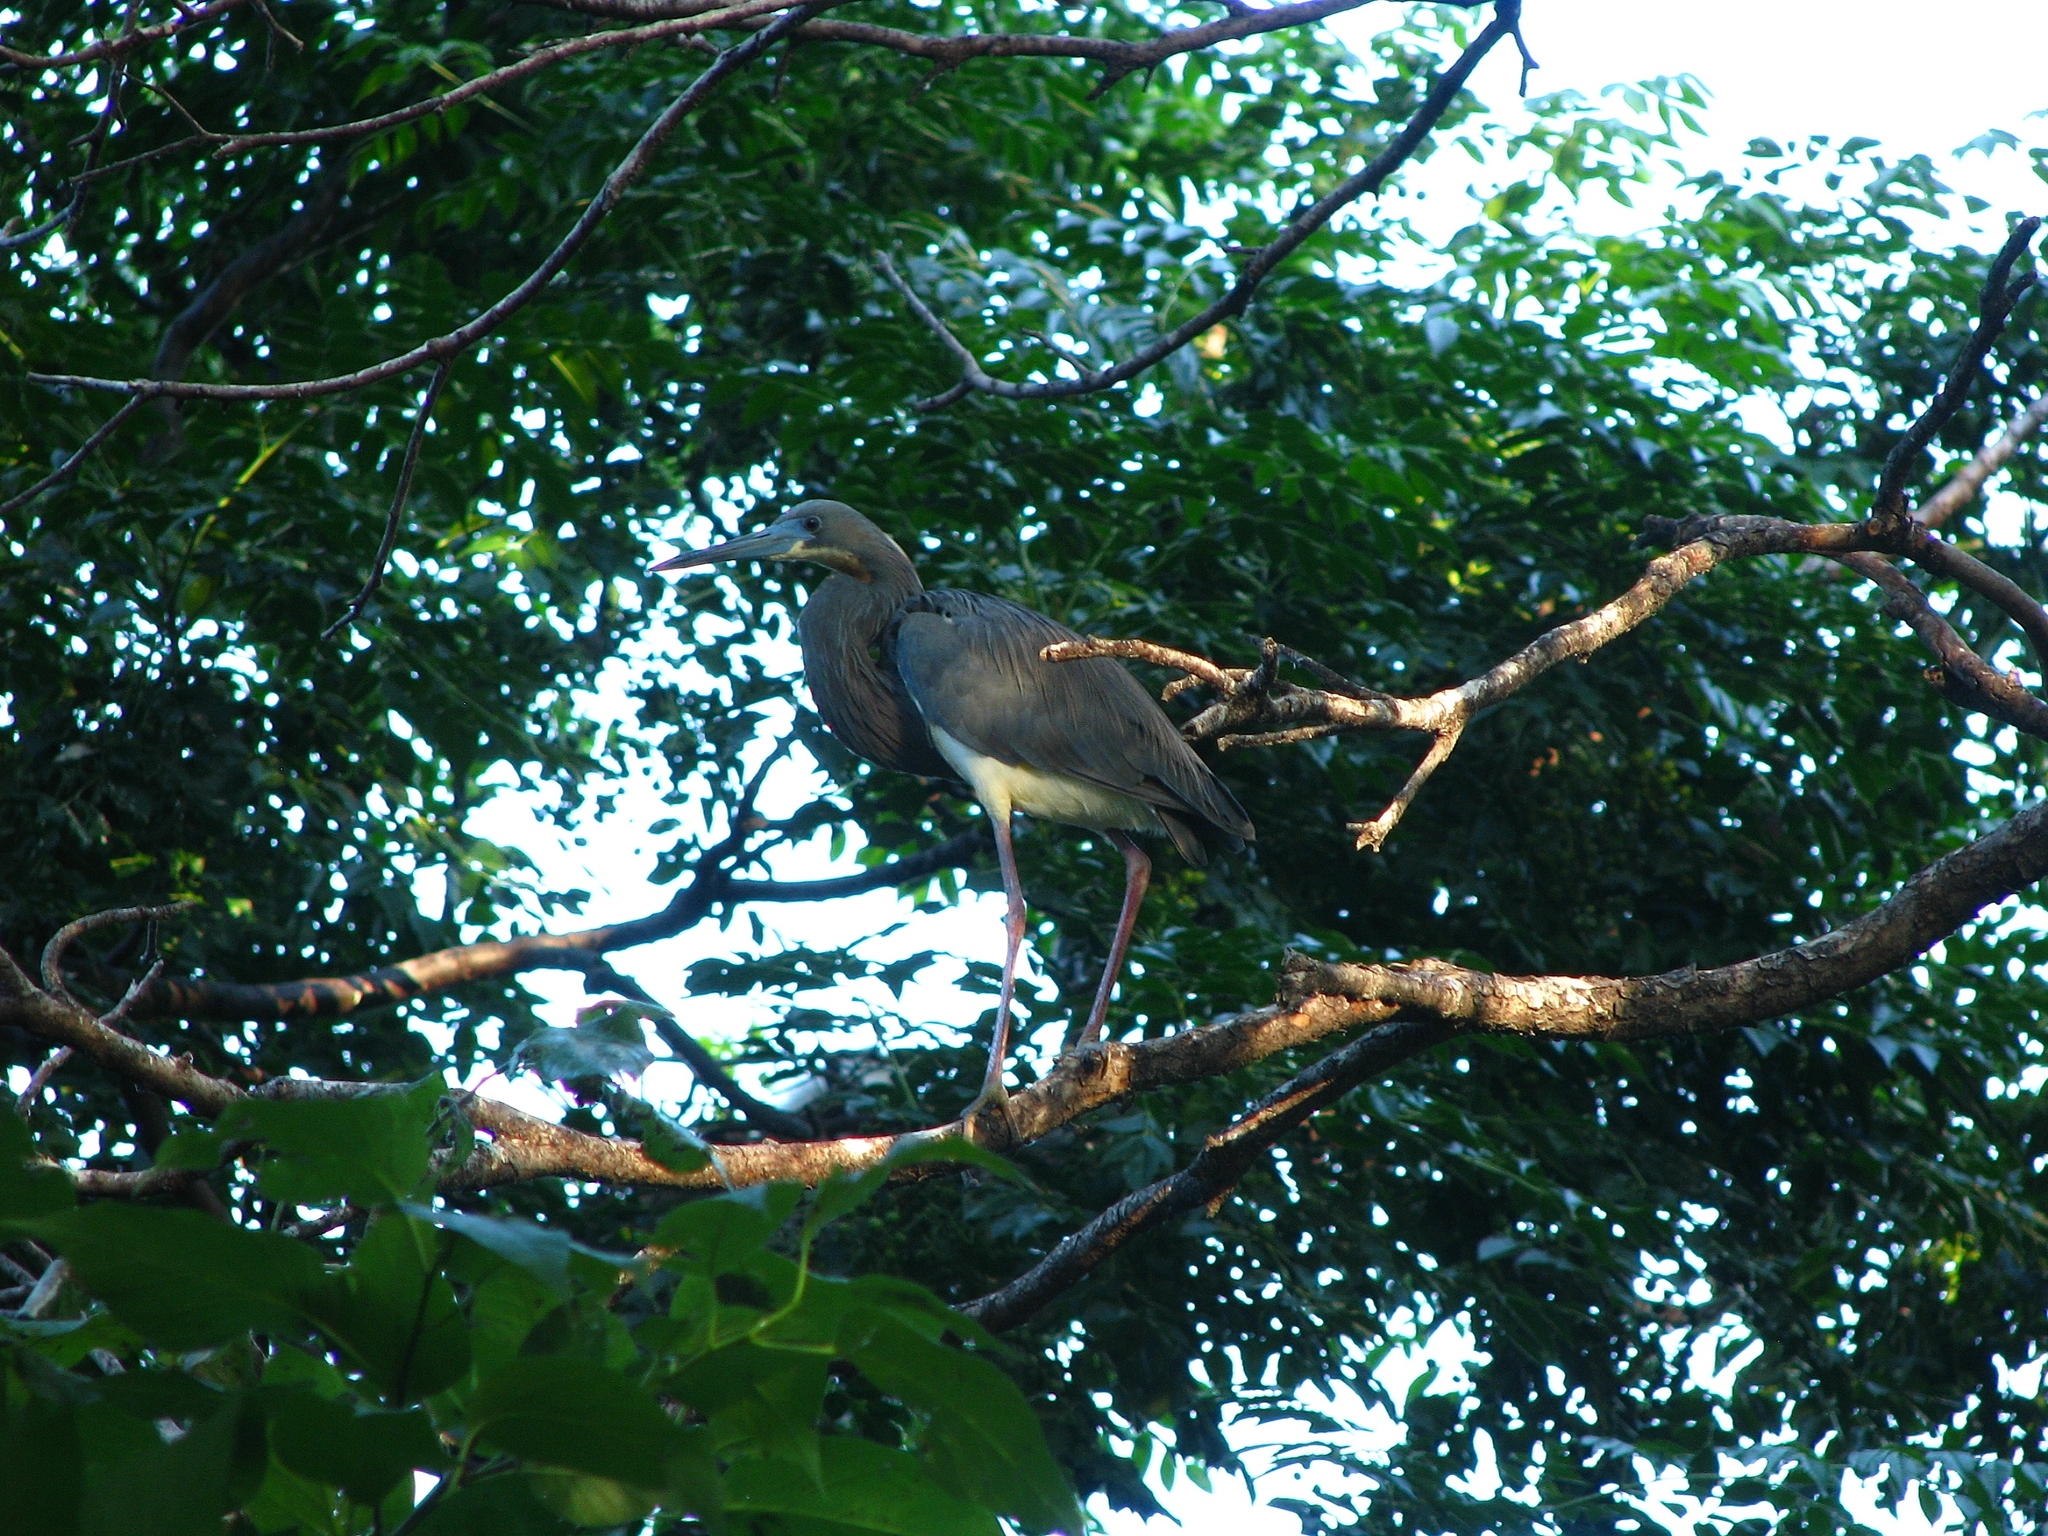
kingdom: Animalia
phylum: Chordata
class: Aves
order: Pelecaniformes
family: Ardeidae
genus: Egretta
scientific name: Egretta tricolor
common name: Tricolored heron
